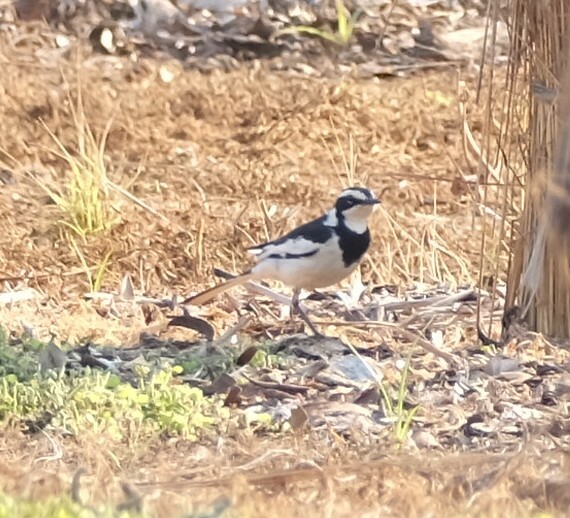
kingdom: Animalia
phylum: Chordata
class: Aves
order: Passeriformes
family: Motacillidae
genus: Motacilla
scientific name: Motacilla aguimp
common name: African pied wagtail
